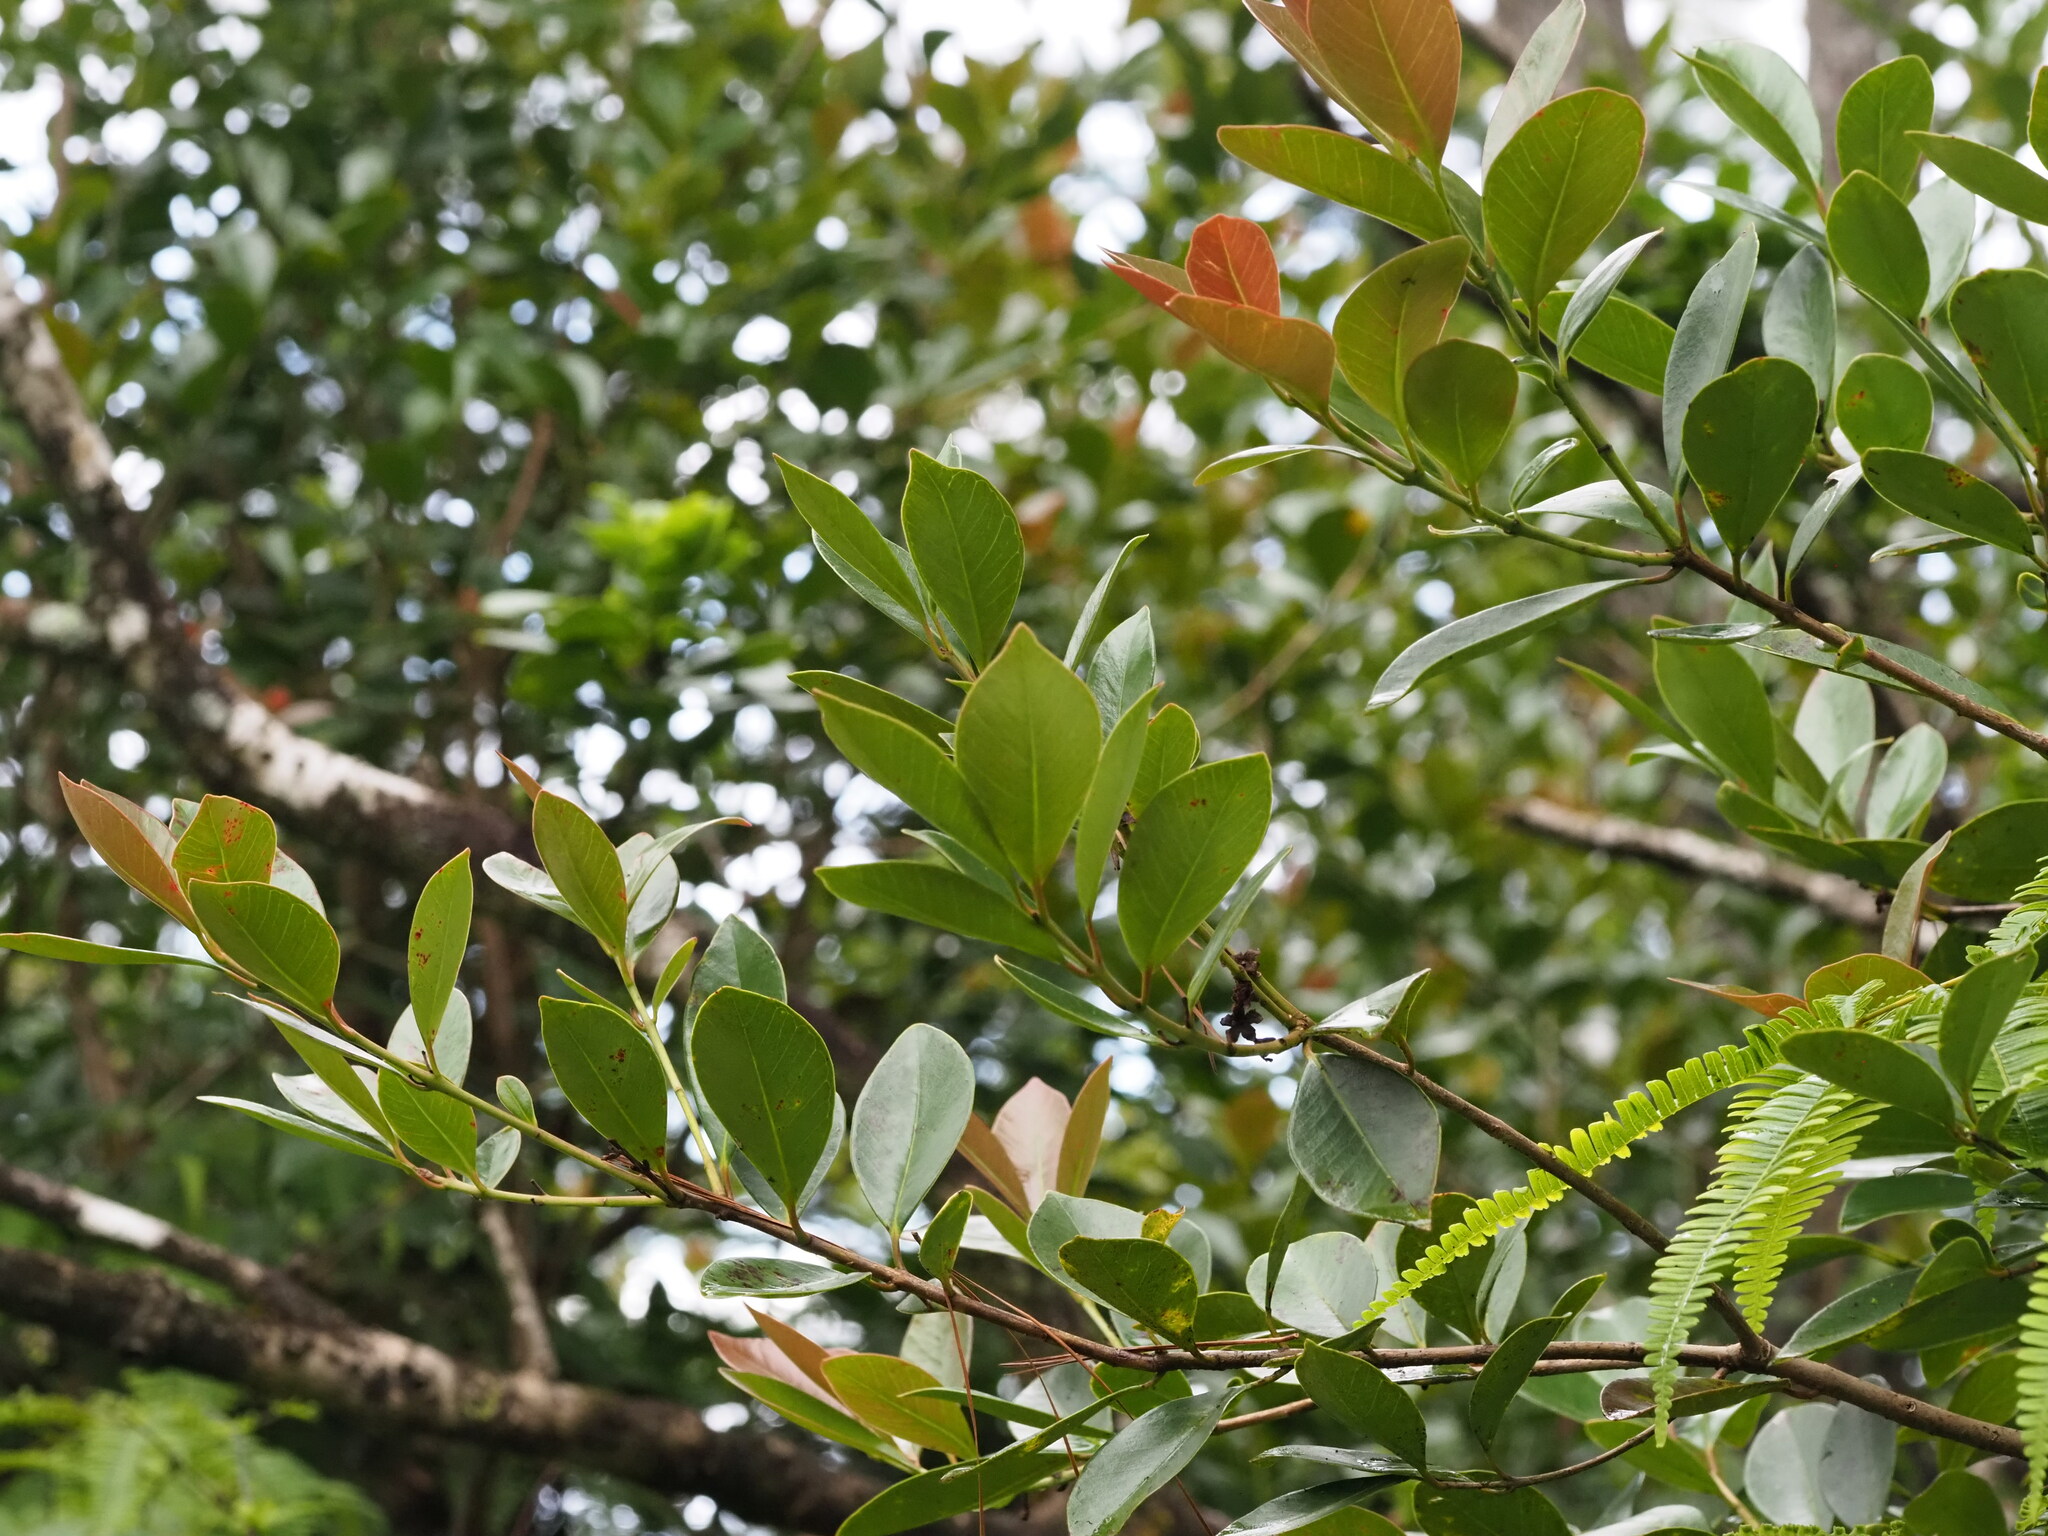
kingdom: Plantae
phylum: Tracheophyta
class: Magnoliopsida
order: Myrtales
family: Myrtaceae
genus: Psidium
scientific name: Psidium cattleianum
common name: Strawberry guava
